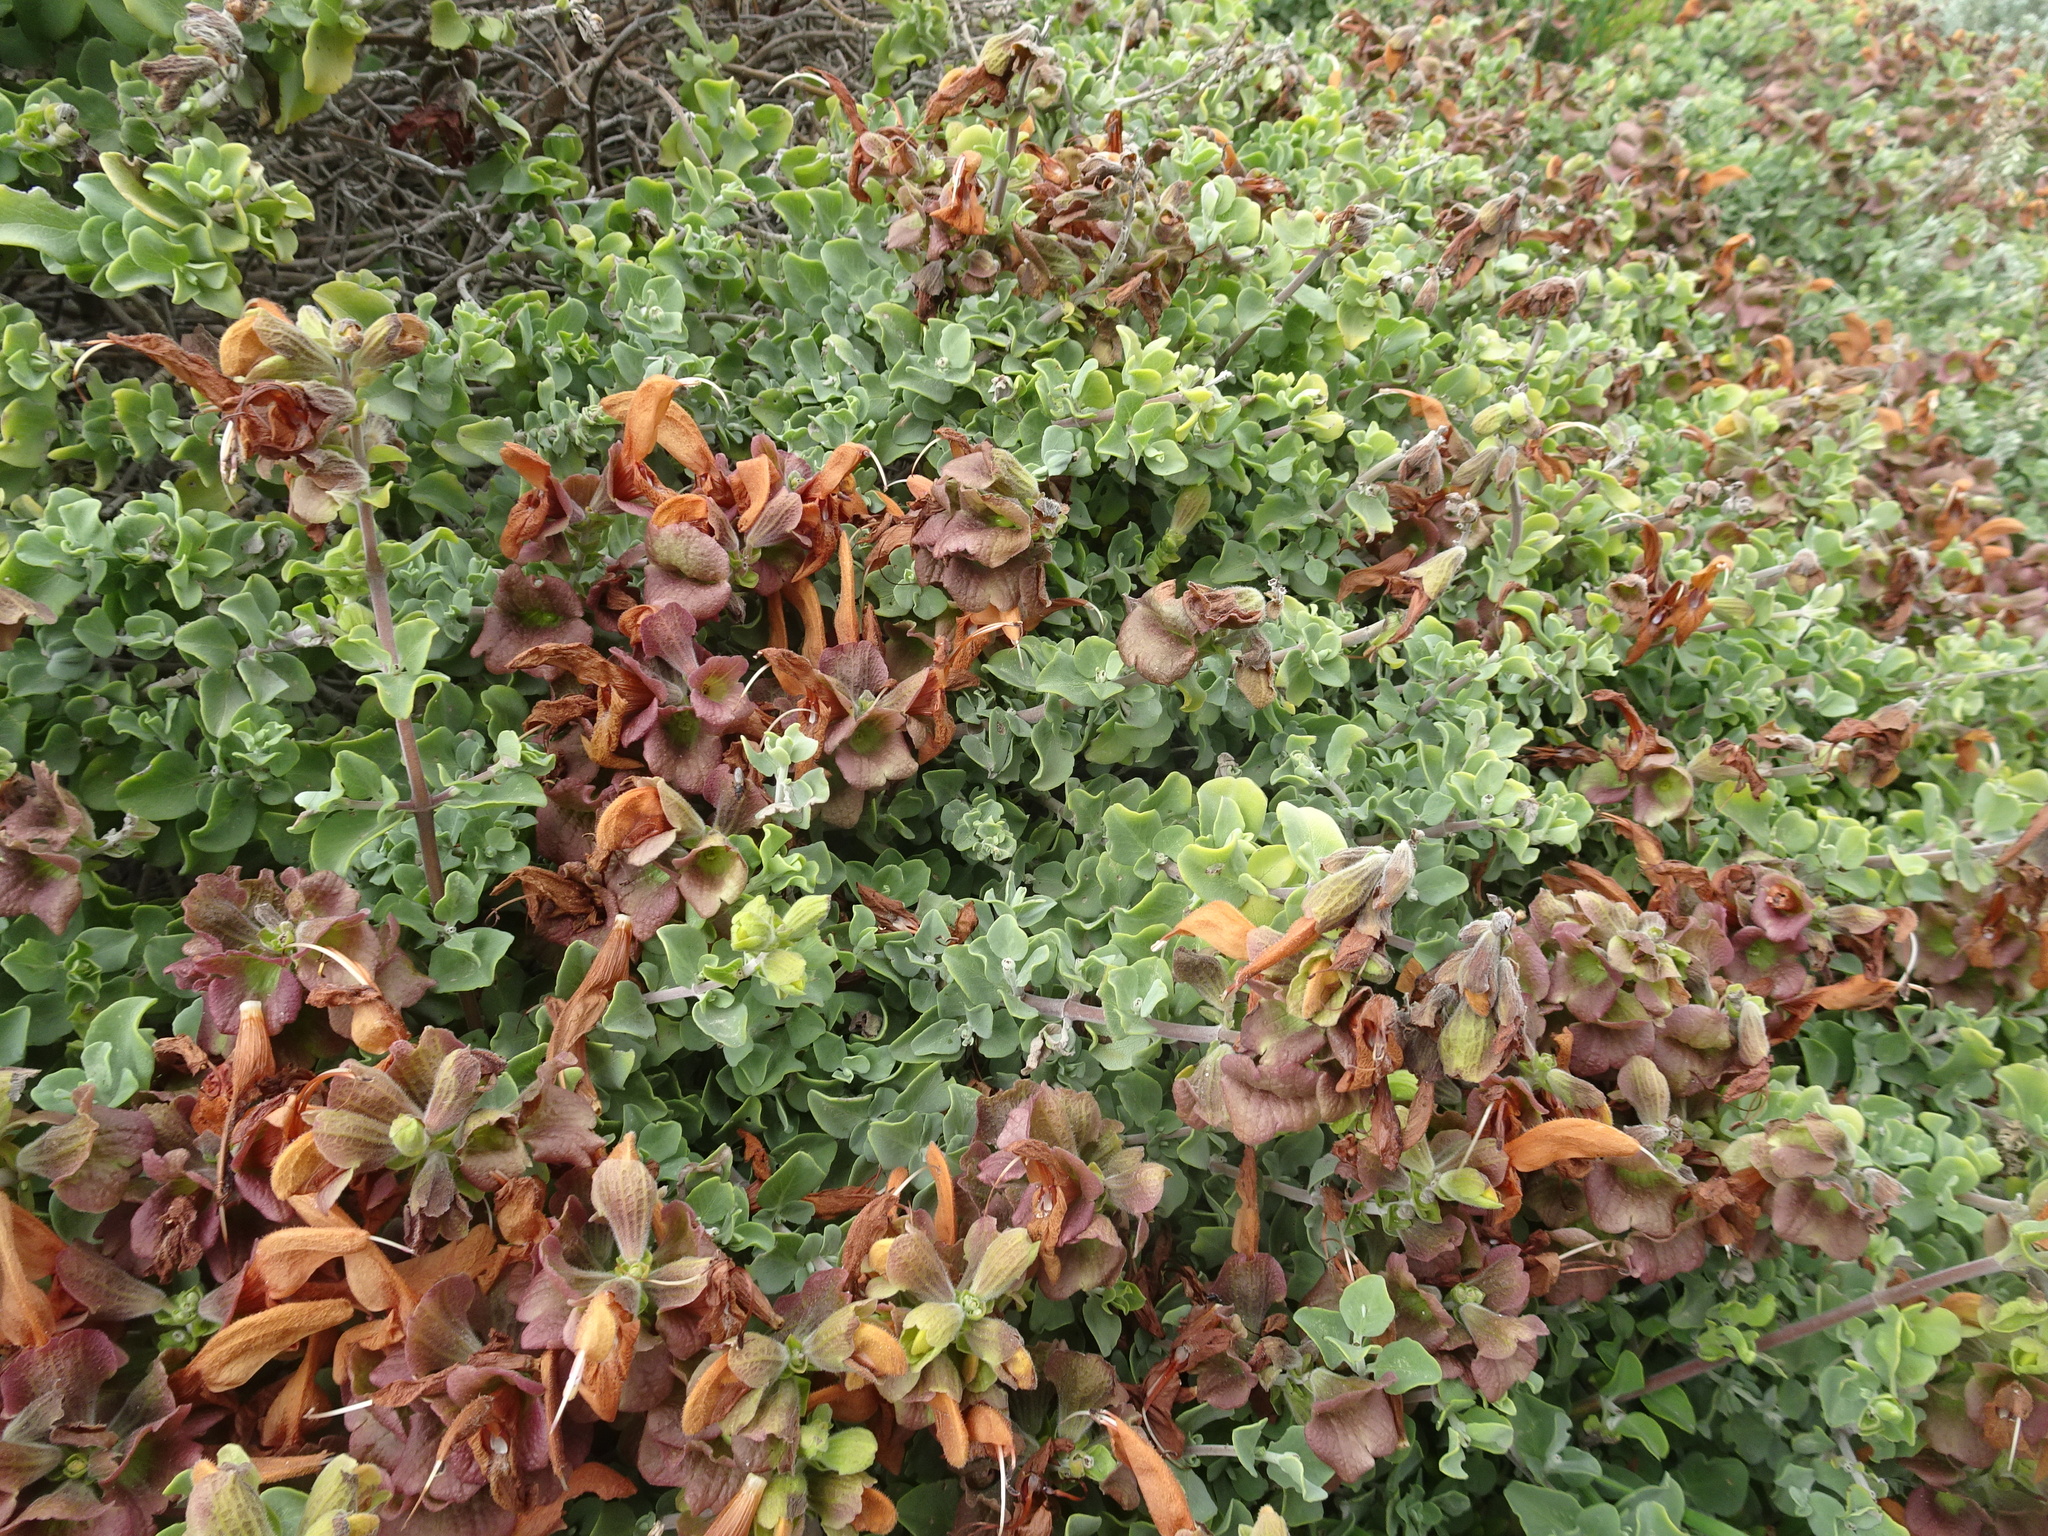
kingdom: Plantae
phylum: Tracheophyta
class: Magnoliopsida
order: Lamiales
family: Lamiaceae
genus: Salvia
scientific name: Salvia aurea
